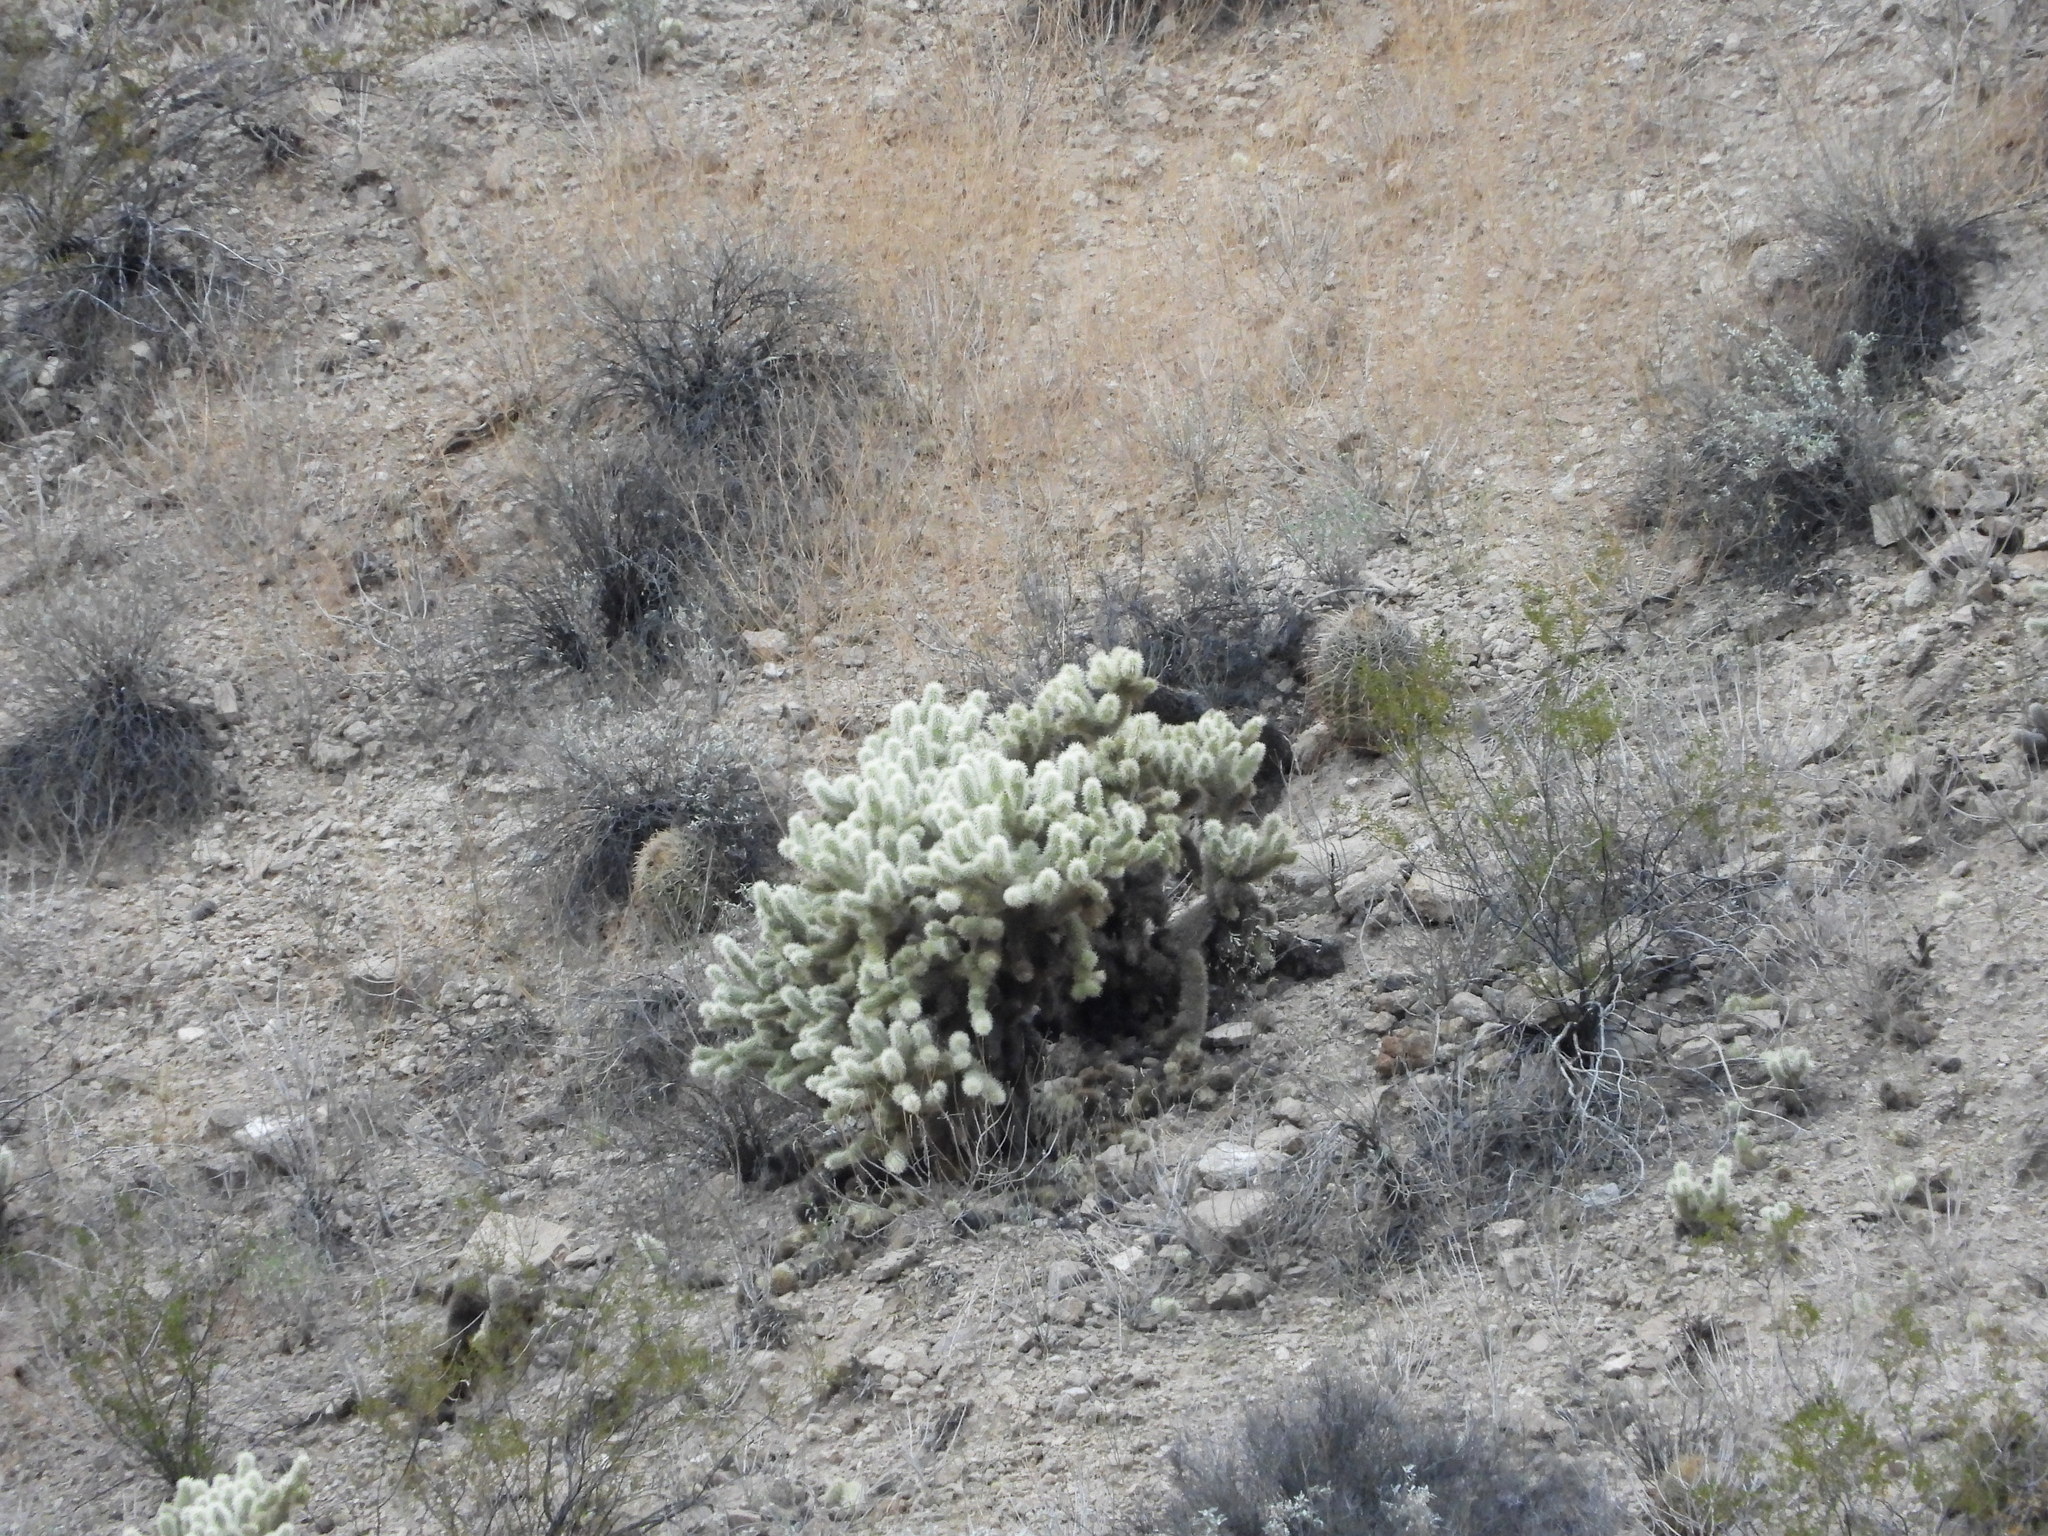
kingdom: Plantae
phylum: Tracheophyta
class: Magnoliopsida
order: Caryophyllales
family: Cactaceae
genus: Cylindropuntia
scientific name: Cylindropuntia fosbergii
